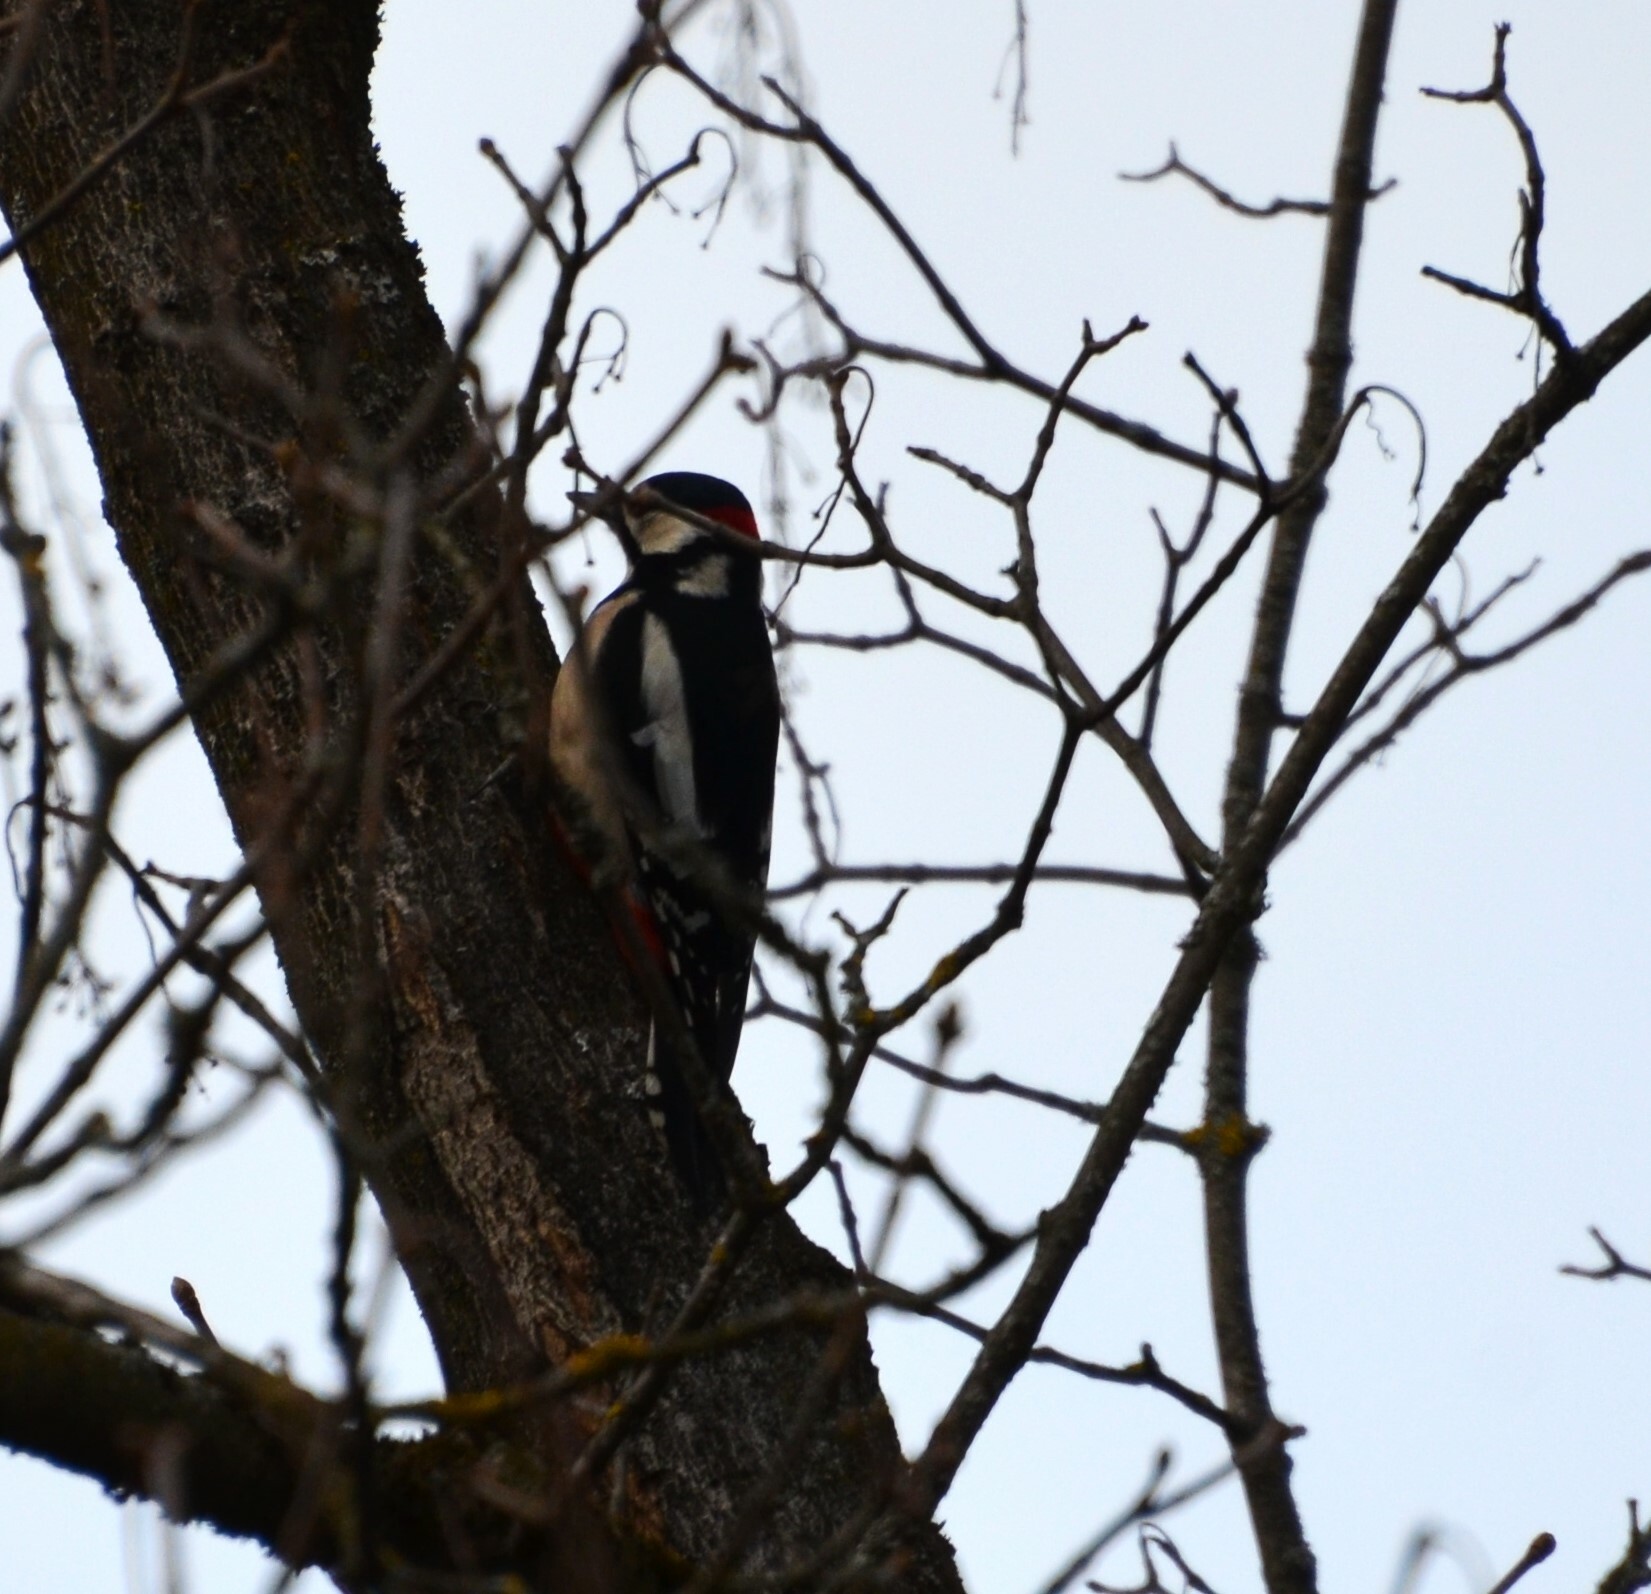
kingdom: Animalia
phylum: Chordata
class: Aves
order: Piciformes
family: Picidae
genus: Dendrocopos
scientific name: Dendrocopos major
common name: Great spotted woodpecker
